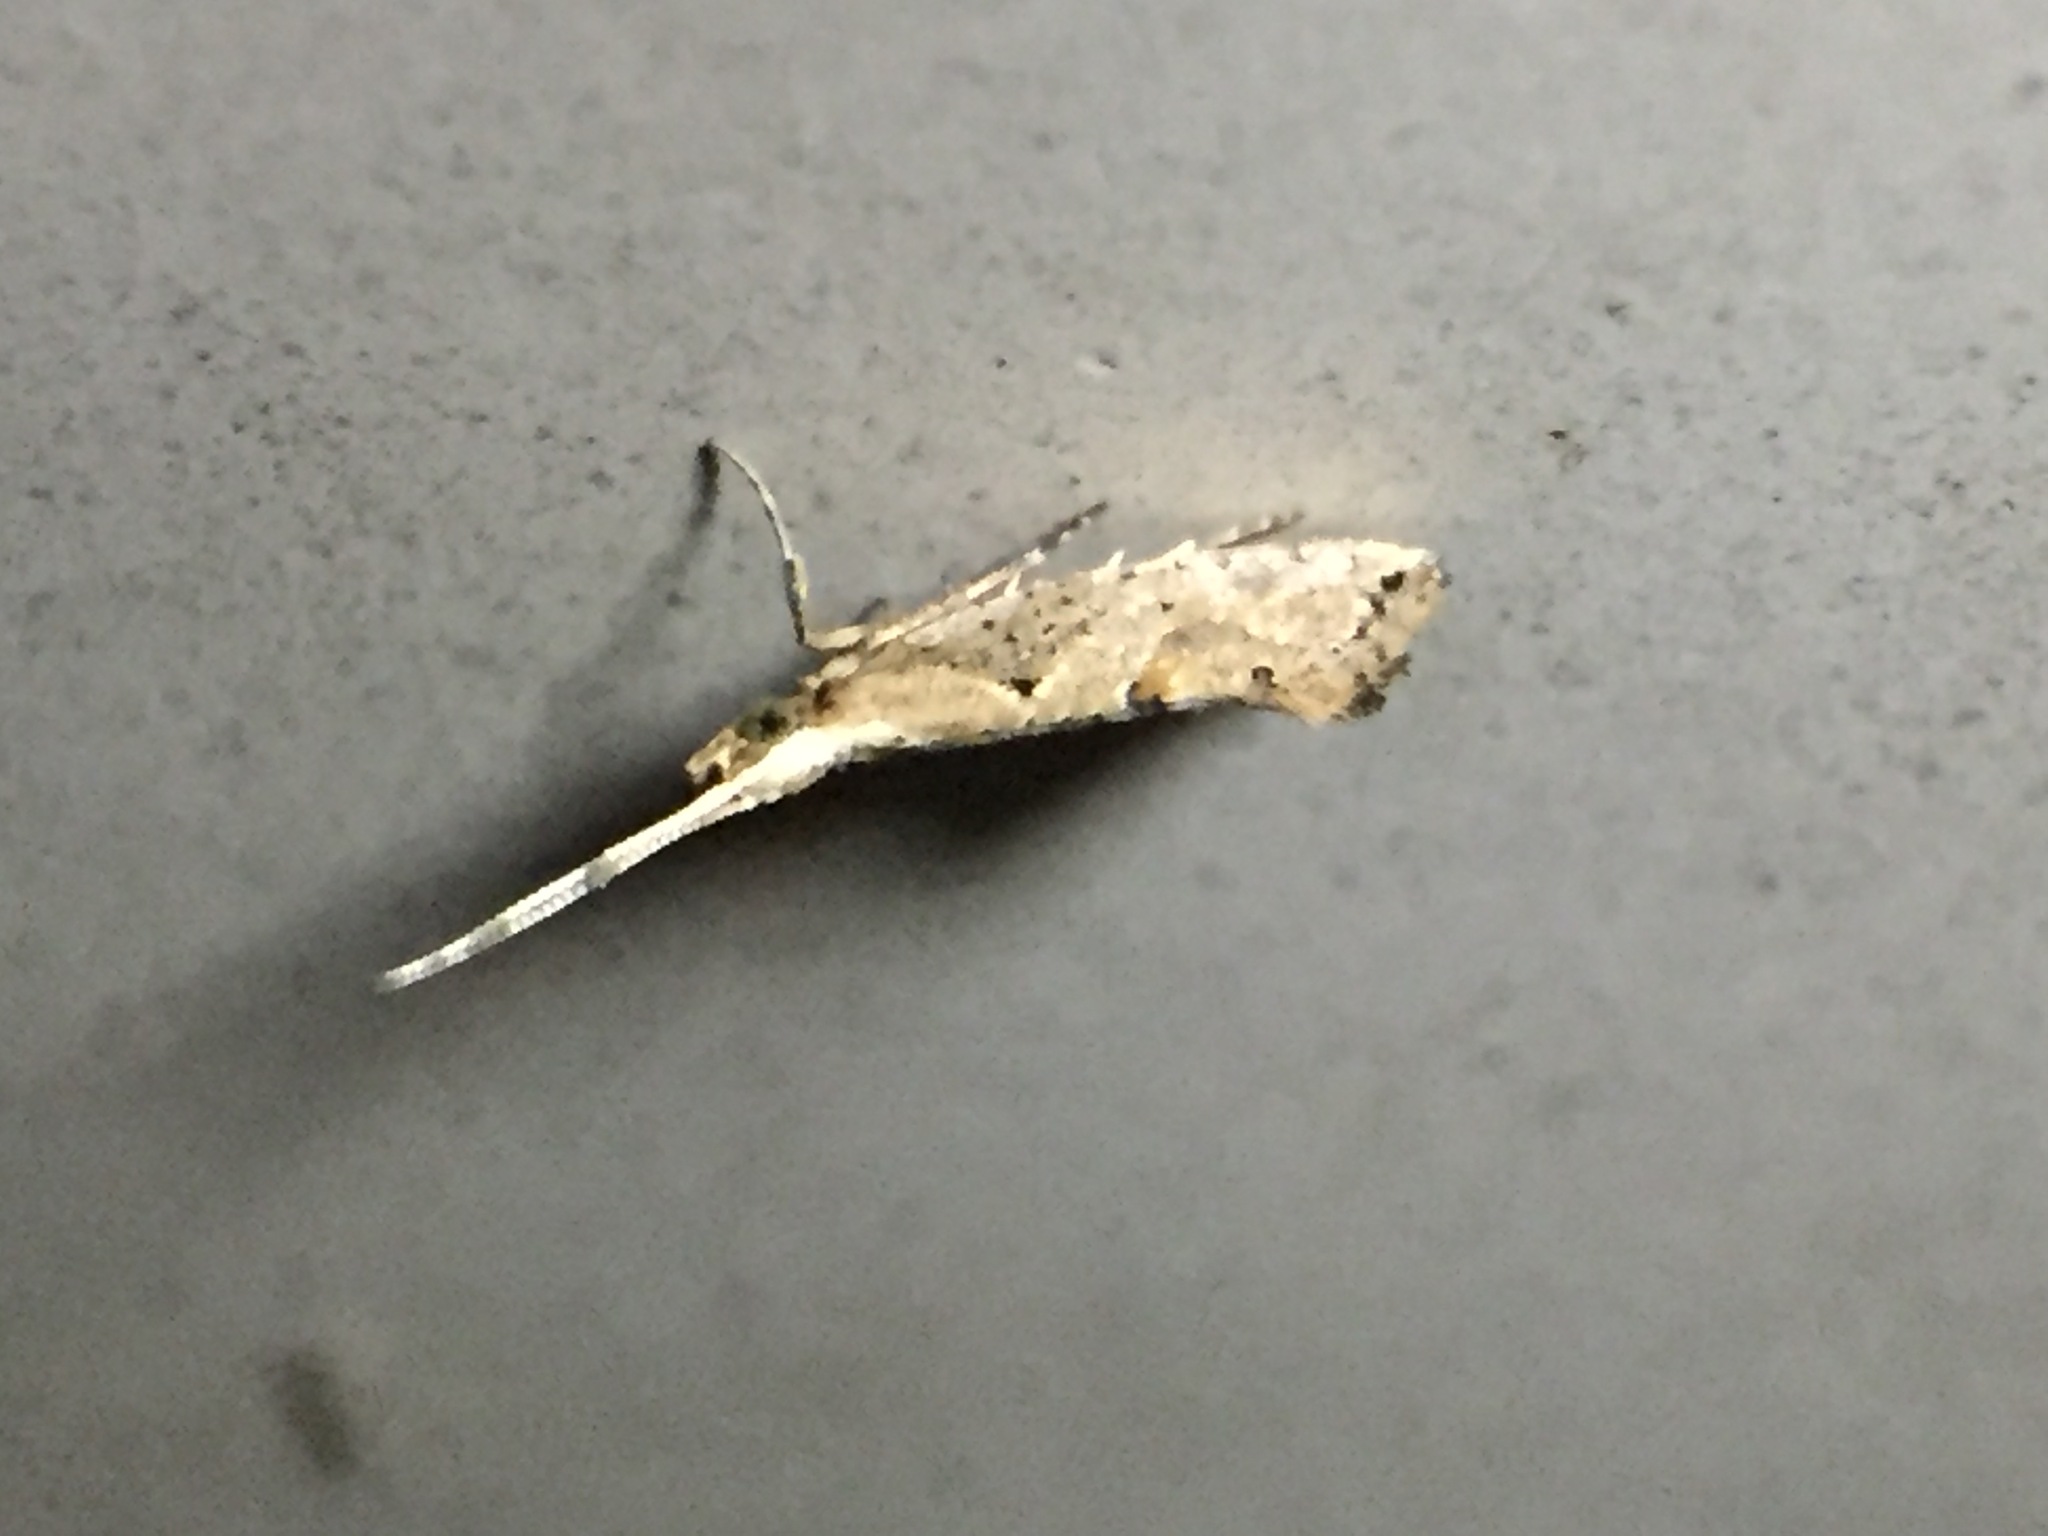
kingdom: Animalia
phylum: Arthropoda
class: Insecta
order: Lepidoptera
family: Plutellidae
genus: Leuroperna
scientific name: Leuroperna sera
